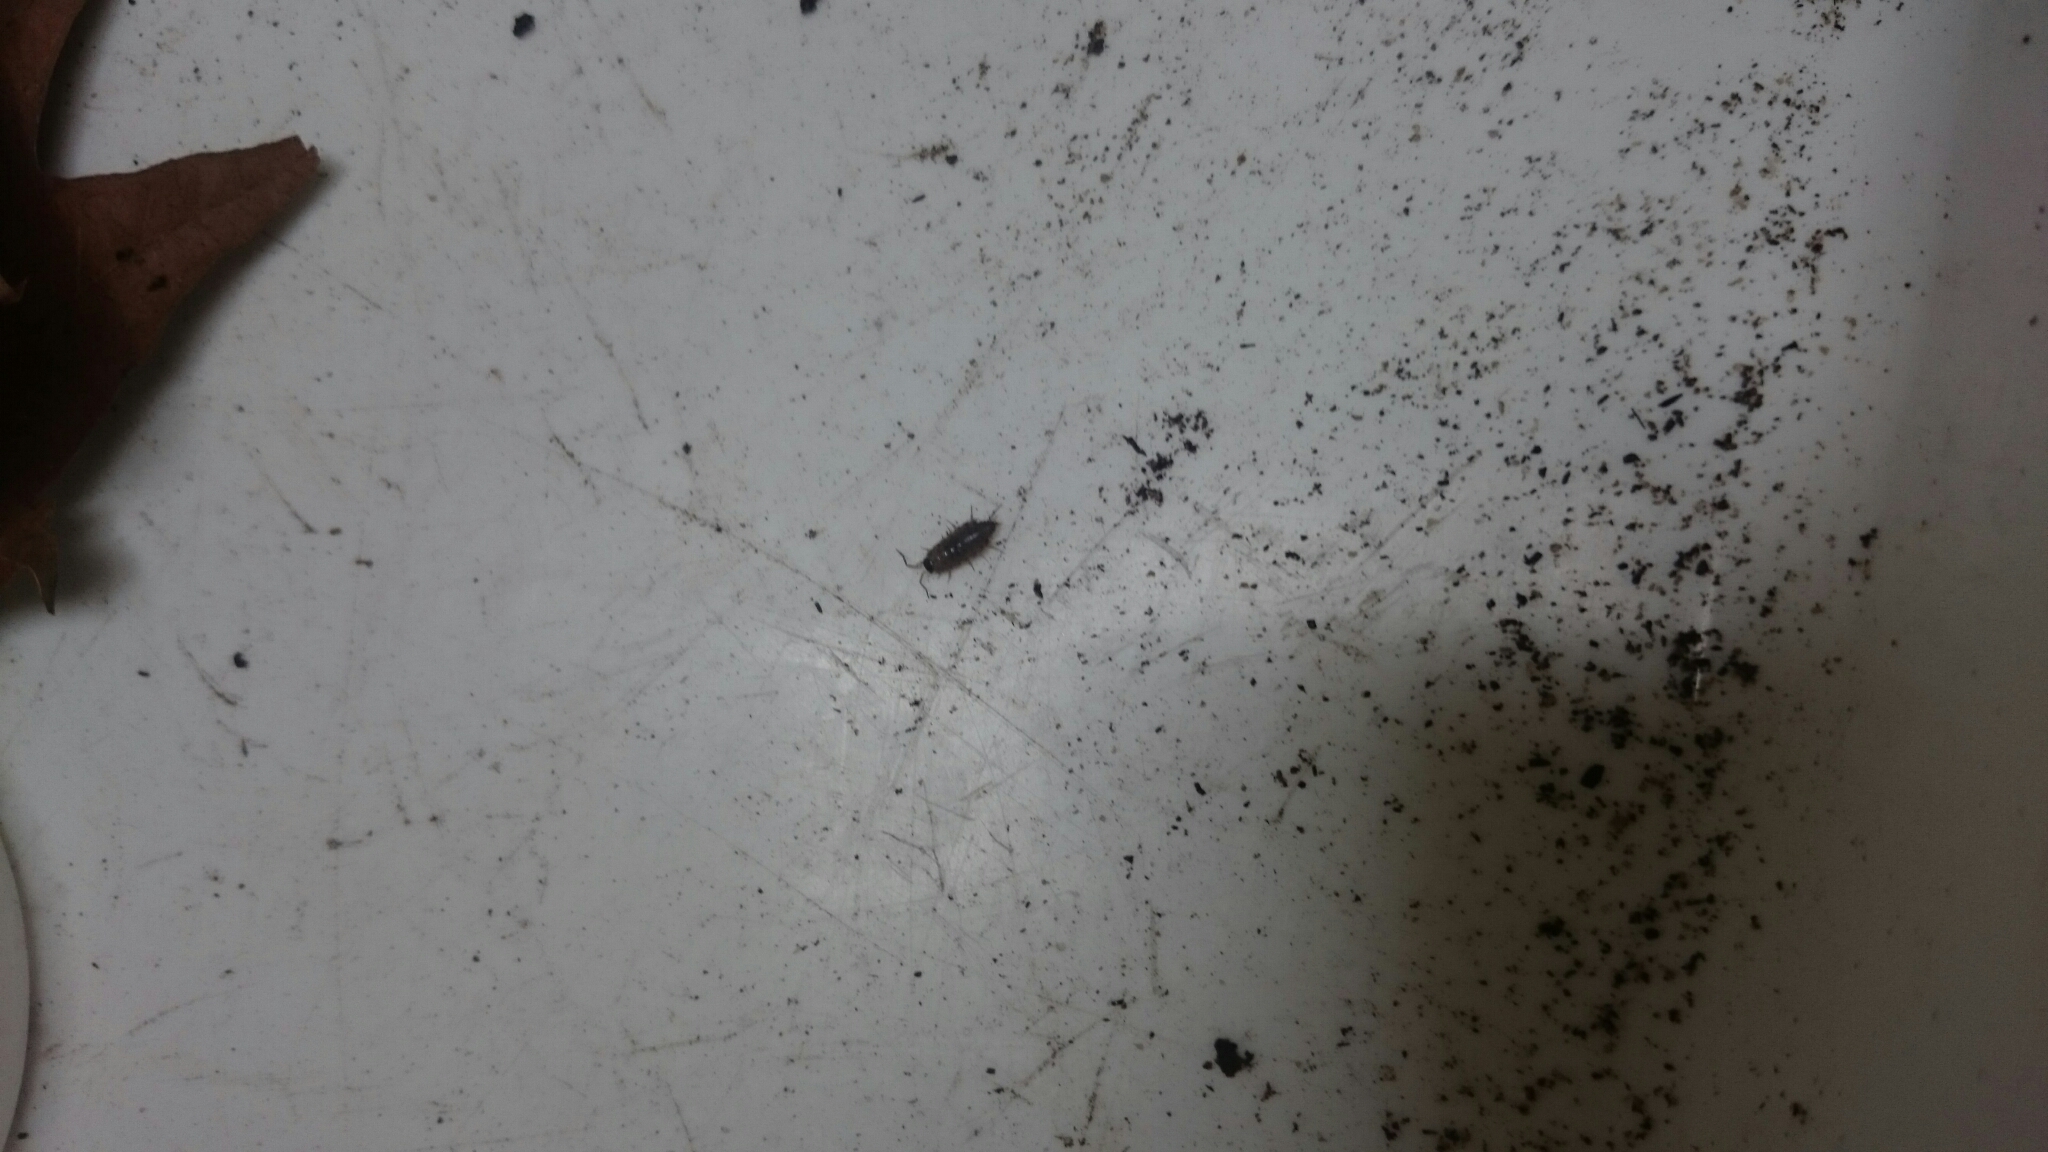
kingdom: Animalia
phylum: Arthropoda
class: Malacostraca
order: Isopoda
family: Philosciidae
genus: Philoscia
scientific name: Philoscia muscorum
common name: Common striped woodlouse
